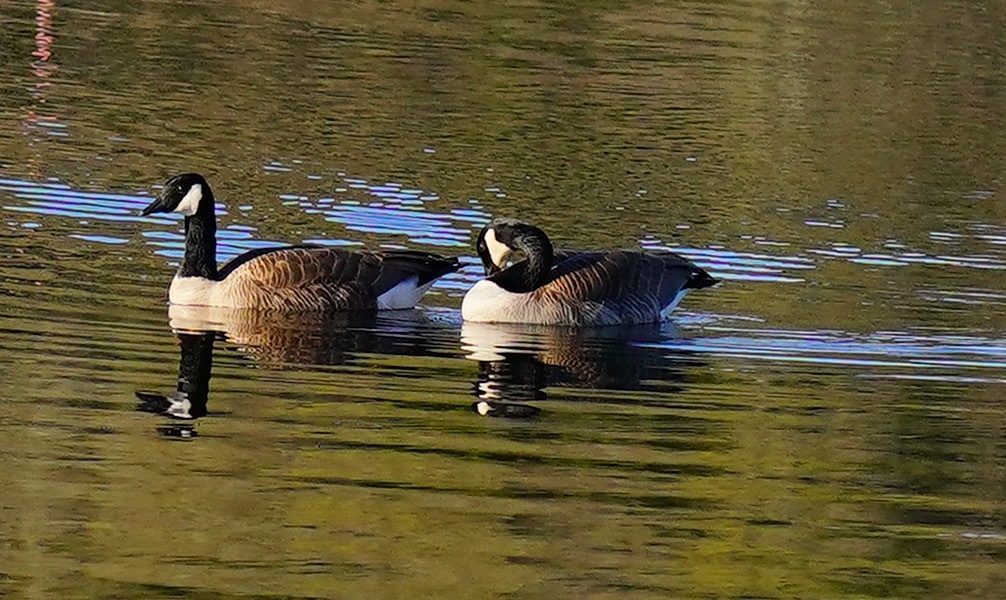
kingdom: Animalia
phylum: Chordata
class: Aves
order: Anseriformes
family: Anatidae
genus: Branta
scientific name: Branta canadensis
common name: Canada goose
